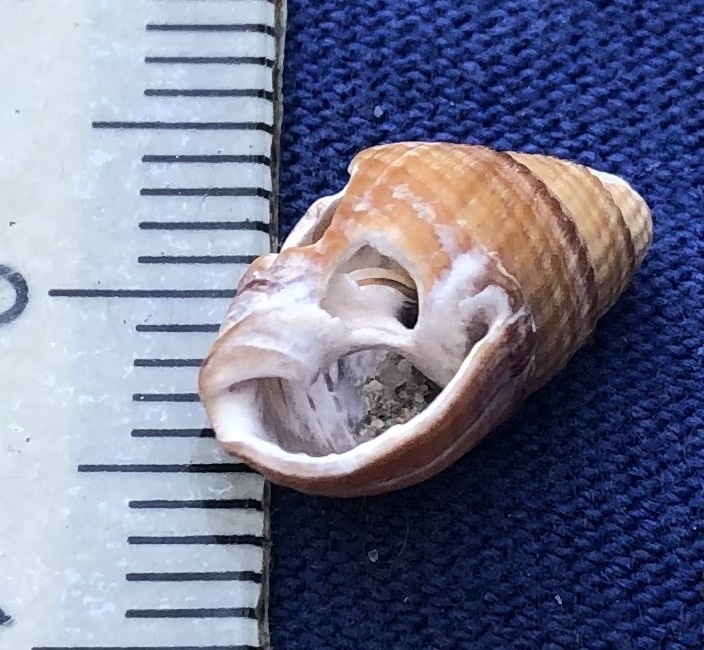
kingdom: Animalia
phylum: Mollusca
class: Gastropoda
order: Neogastropoda
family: Nassariidae
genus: Ilyanassa
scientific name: Ilyanassa obsoleta
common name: Eastern mudsnail
